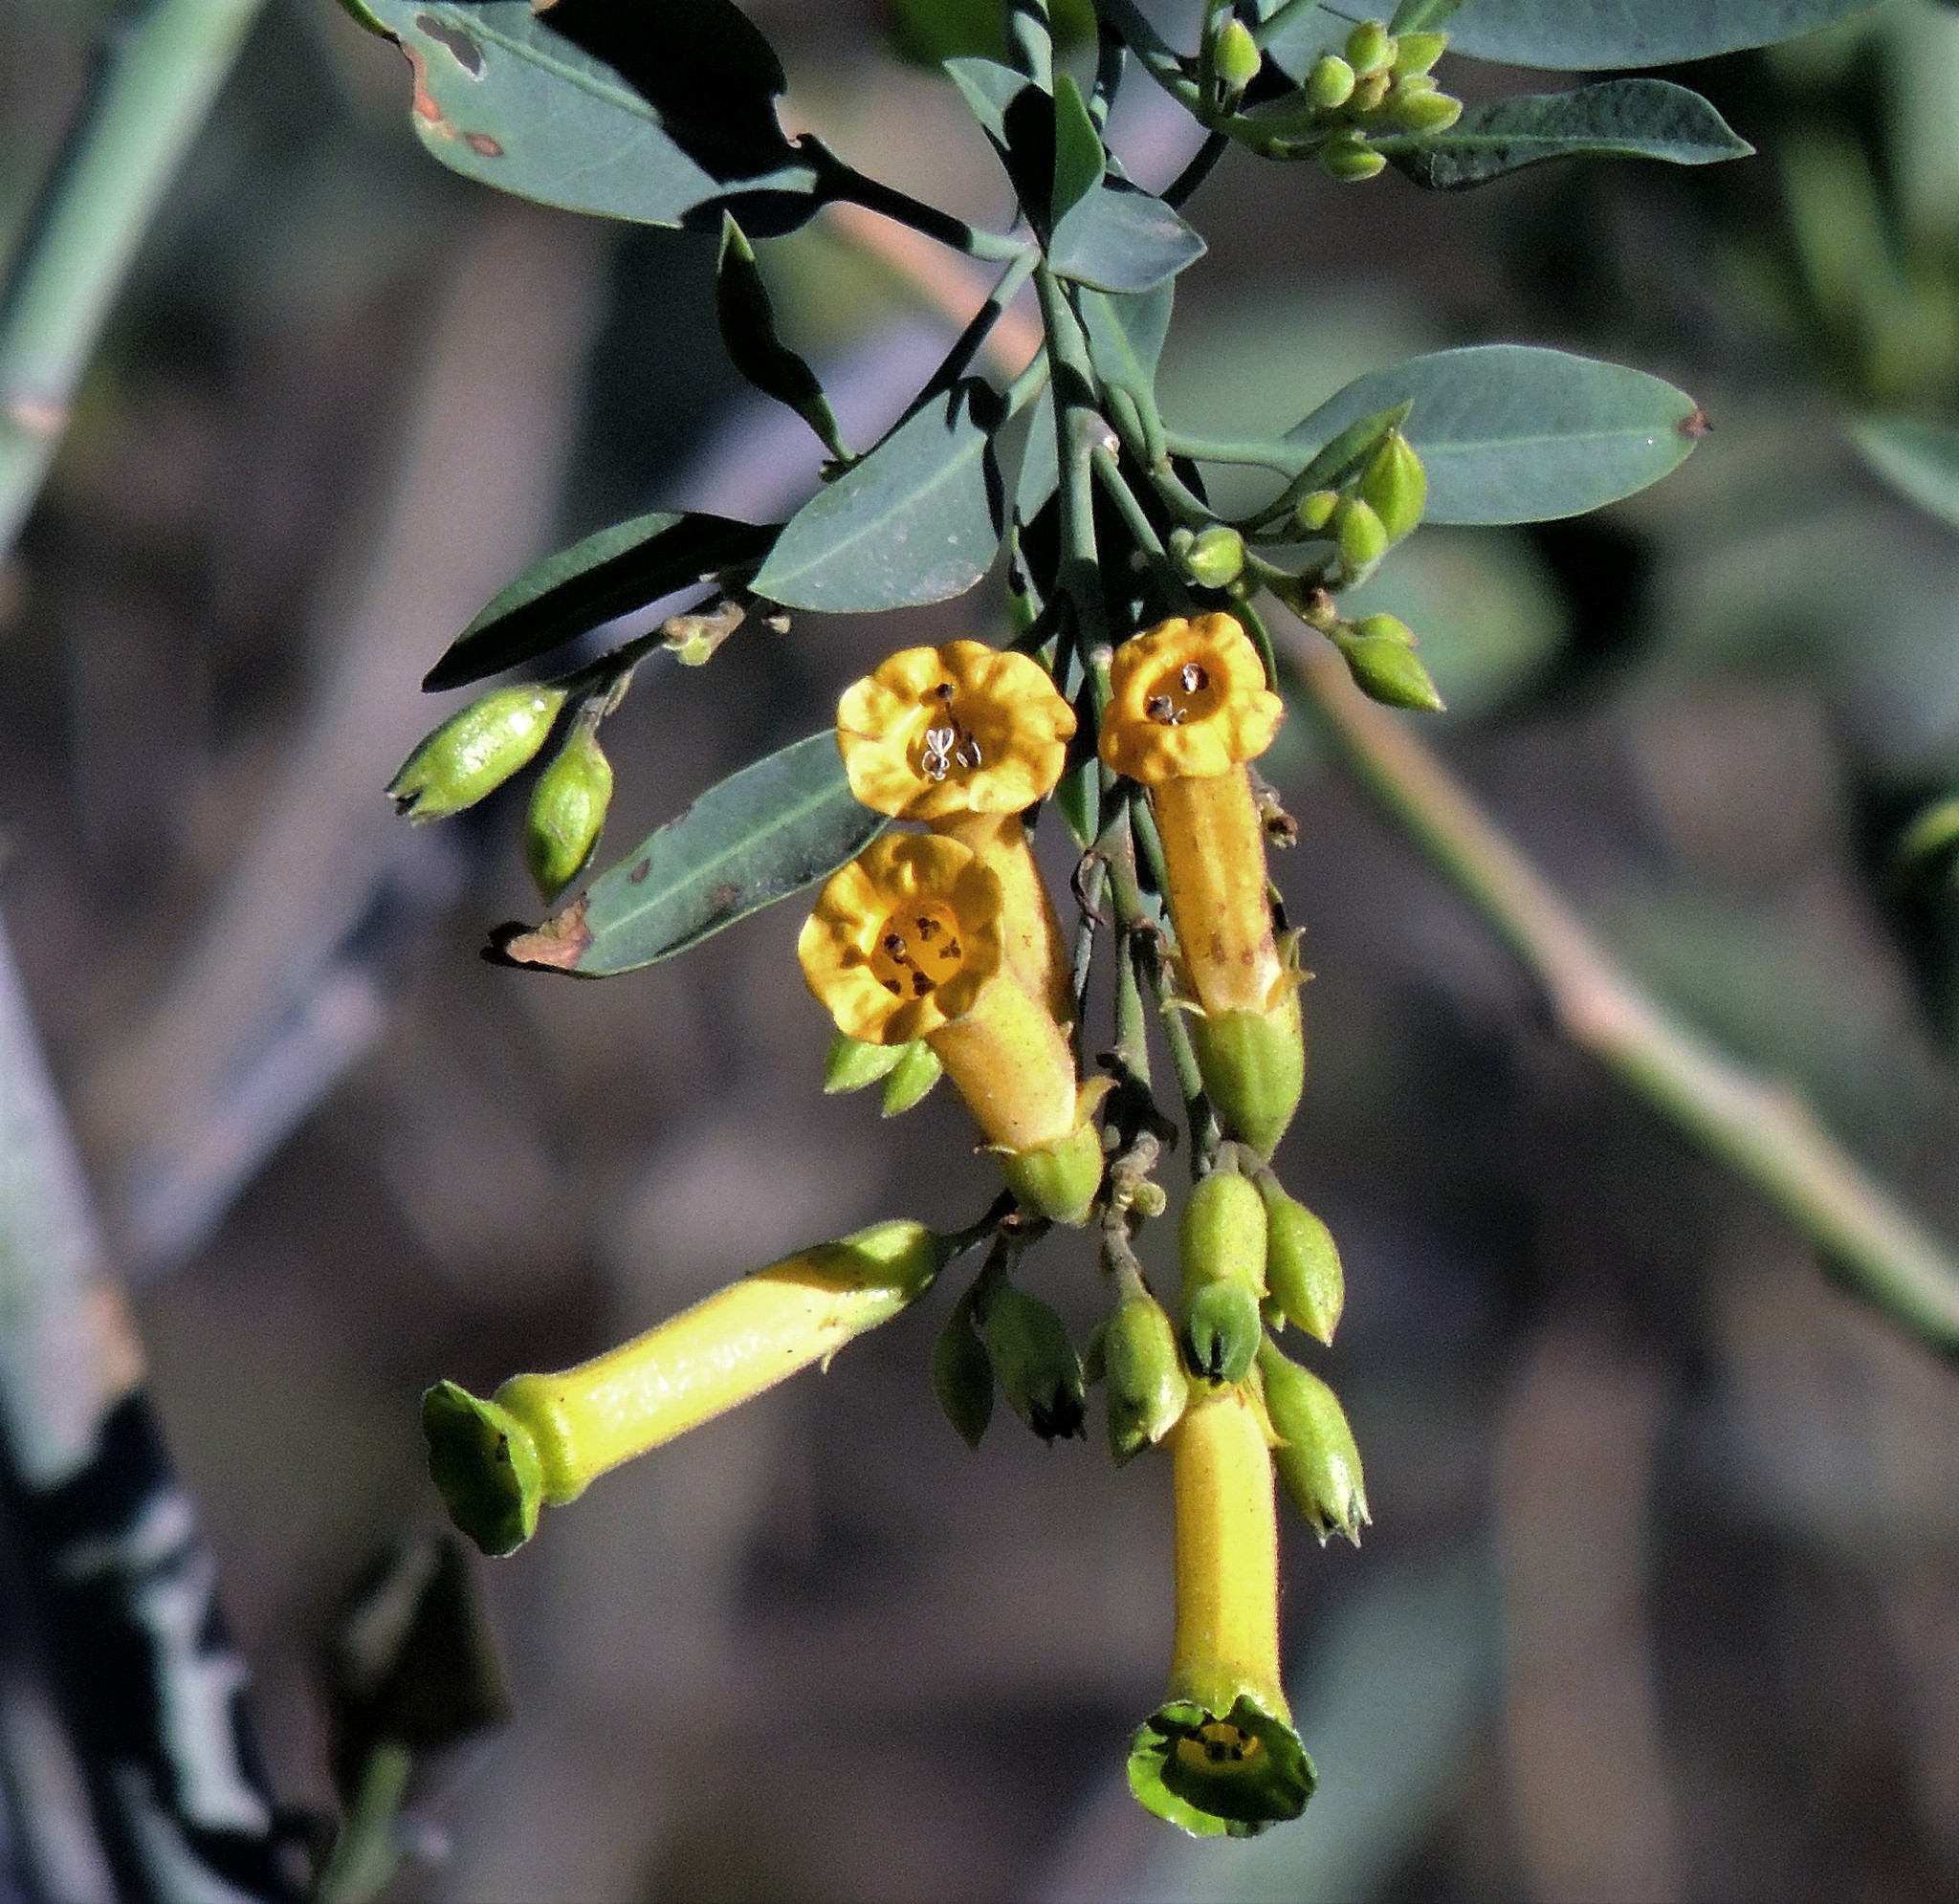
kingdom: Plantae
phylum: Tracheophyta
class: Magnoliopsida
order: Solanales
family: Solanaceae
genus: Nicotiana
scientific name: Nicotiana glauca
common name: Tree tobacco
